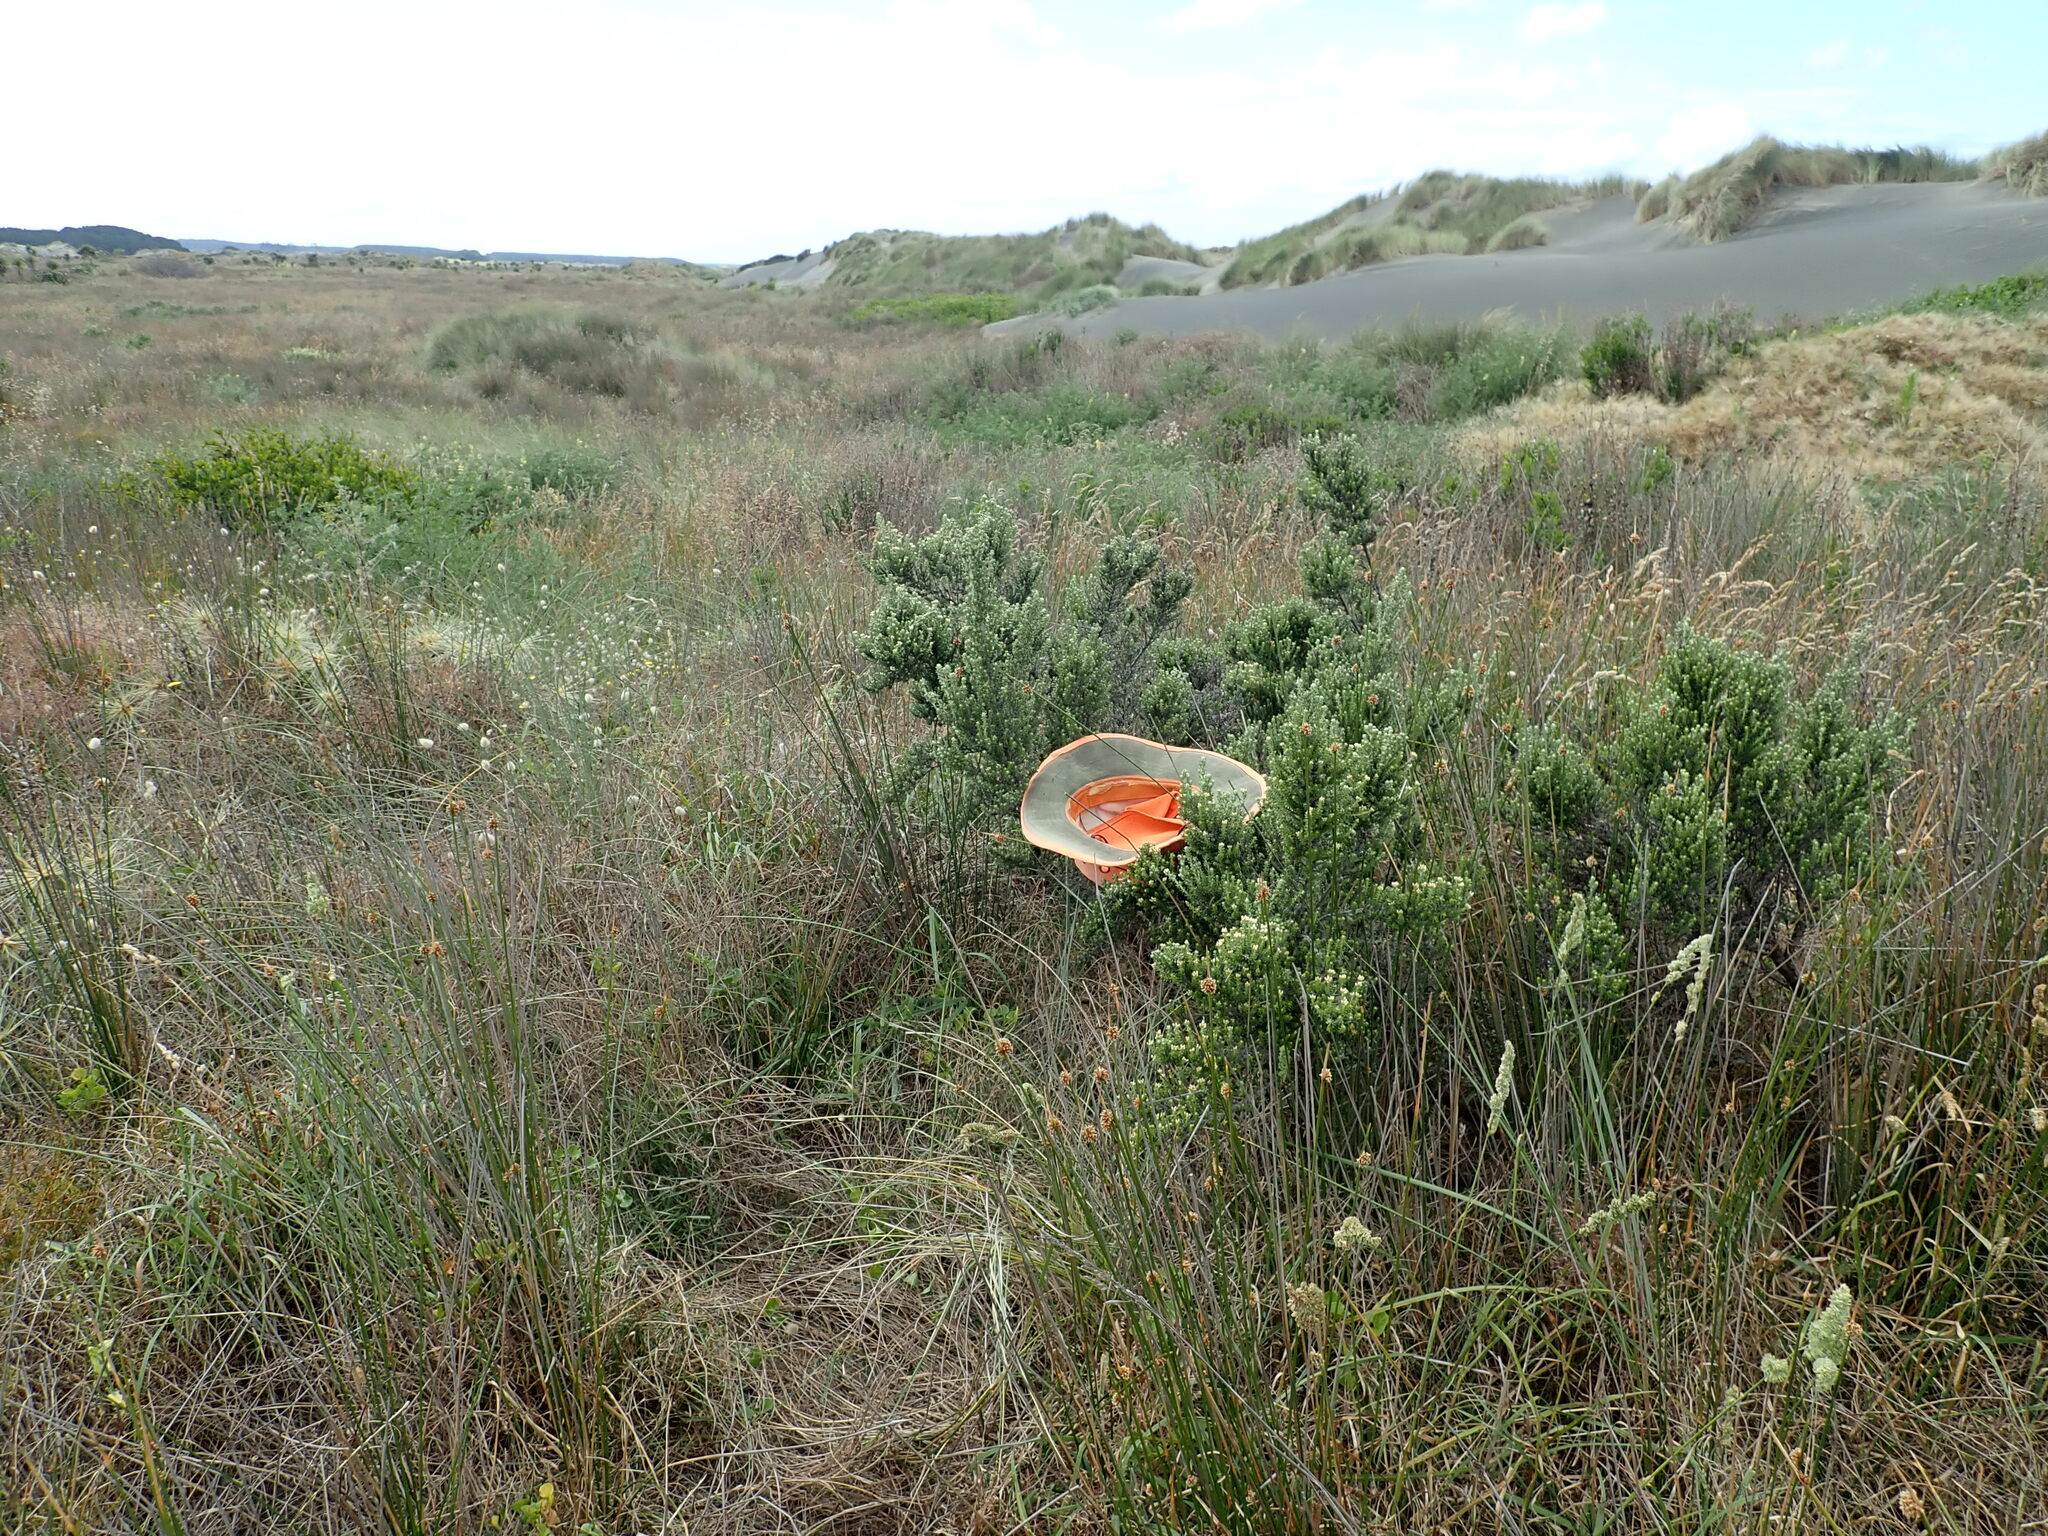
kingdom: Plantae
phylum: Tracheophyta
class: Magnoliopsida
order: Asterales
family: Asteraceae
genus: Ozothamnus
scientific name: Ozothamnus leptophyllus
